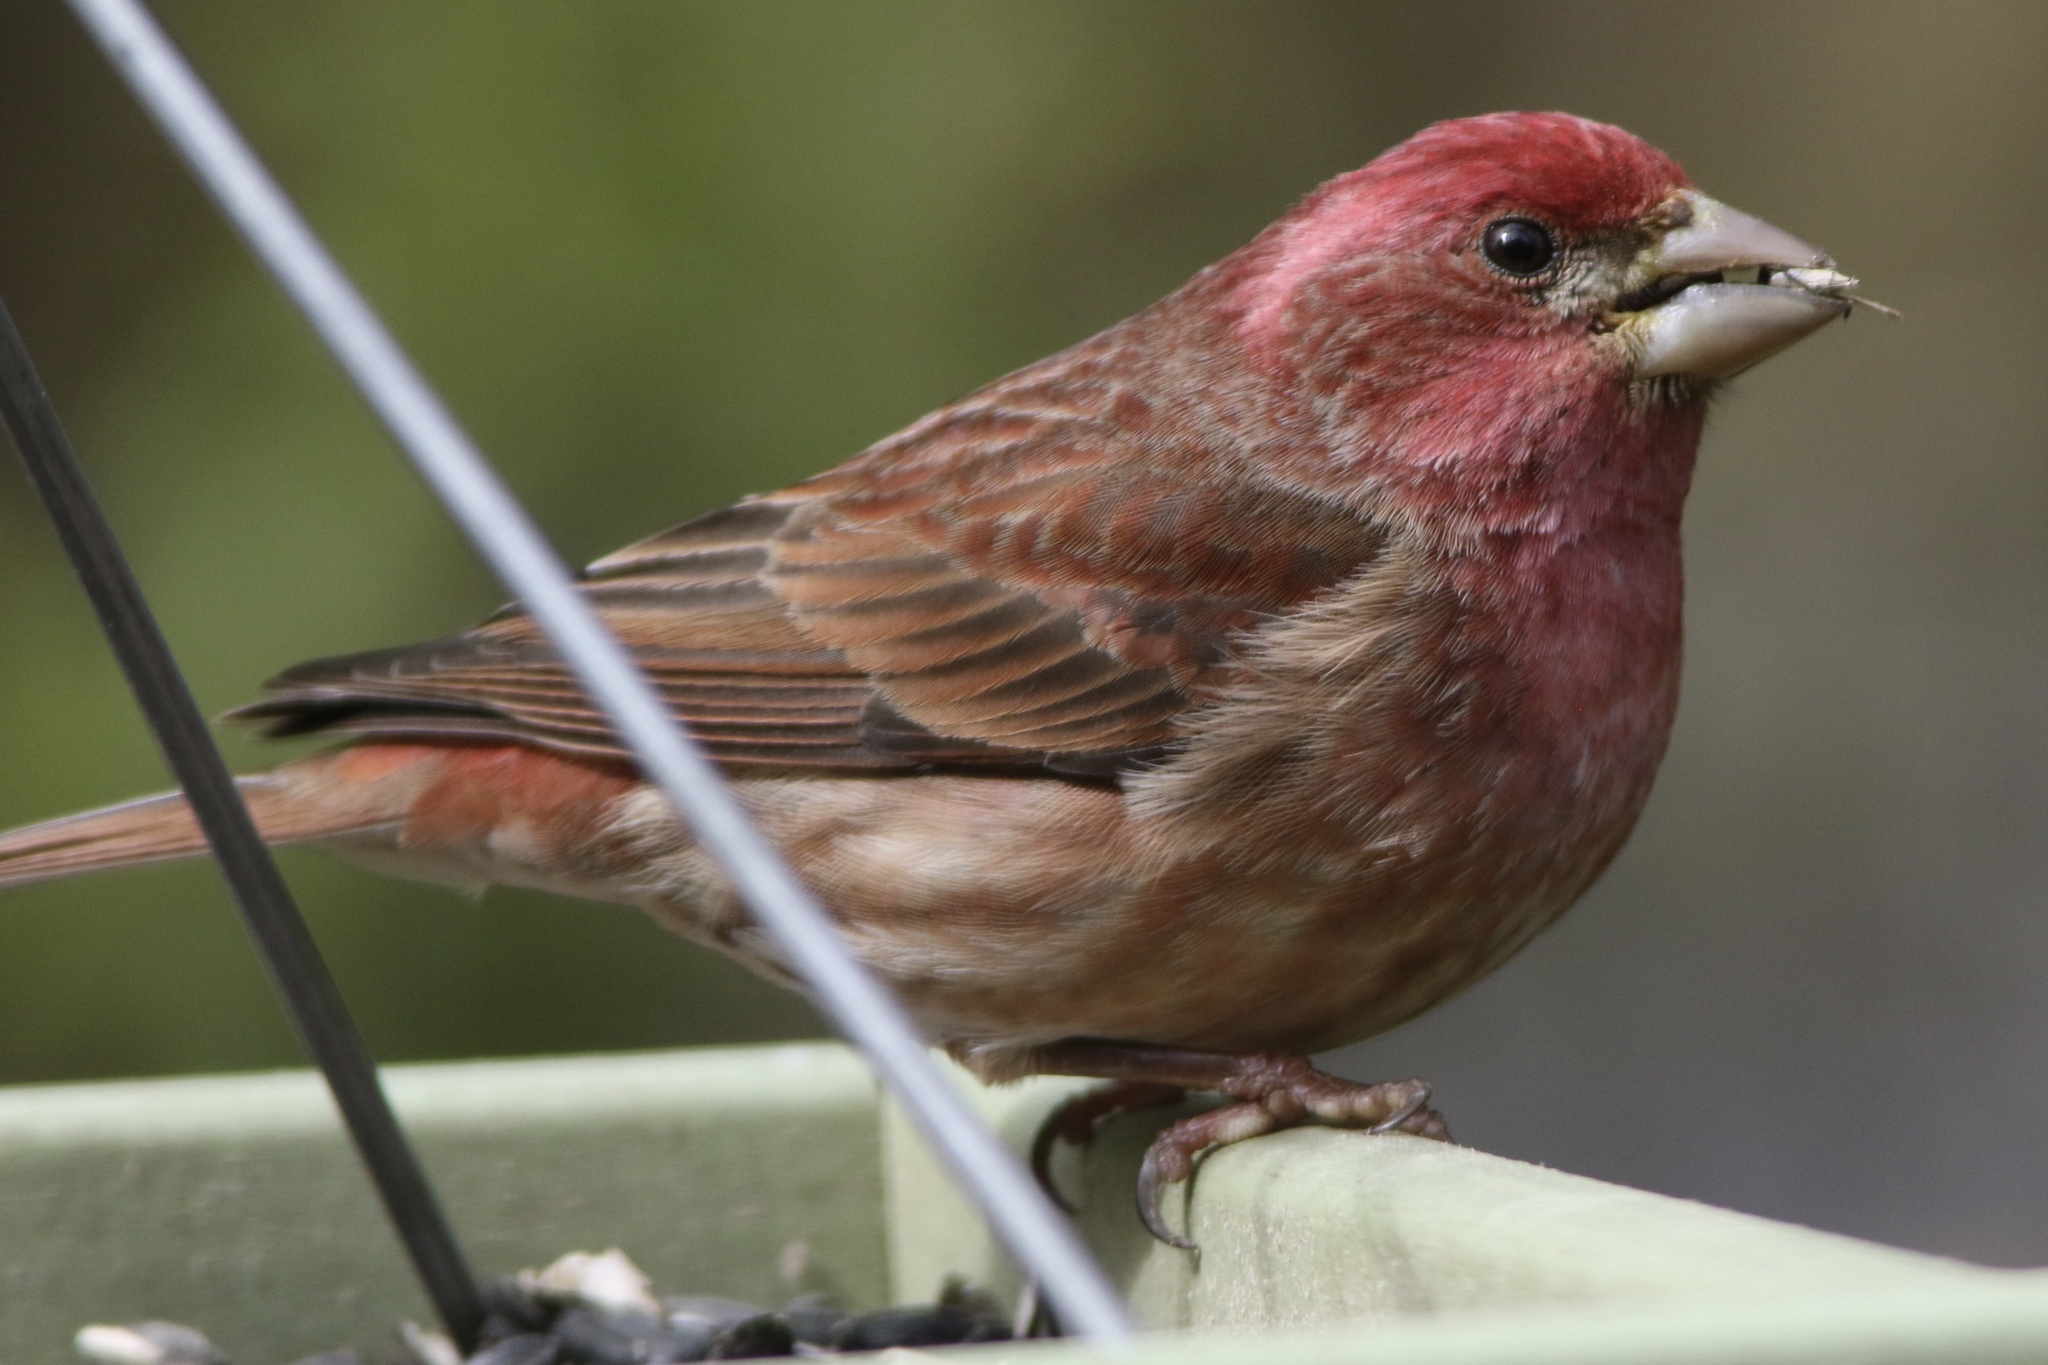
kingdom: Animalia
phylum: Chordata
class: Aves
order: Passeriformes
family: Fringillidae
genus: Haemorhous
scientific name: Haemorhous purpureus
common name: Purple finch
